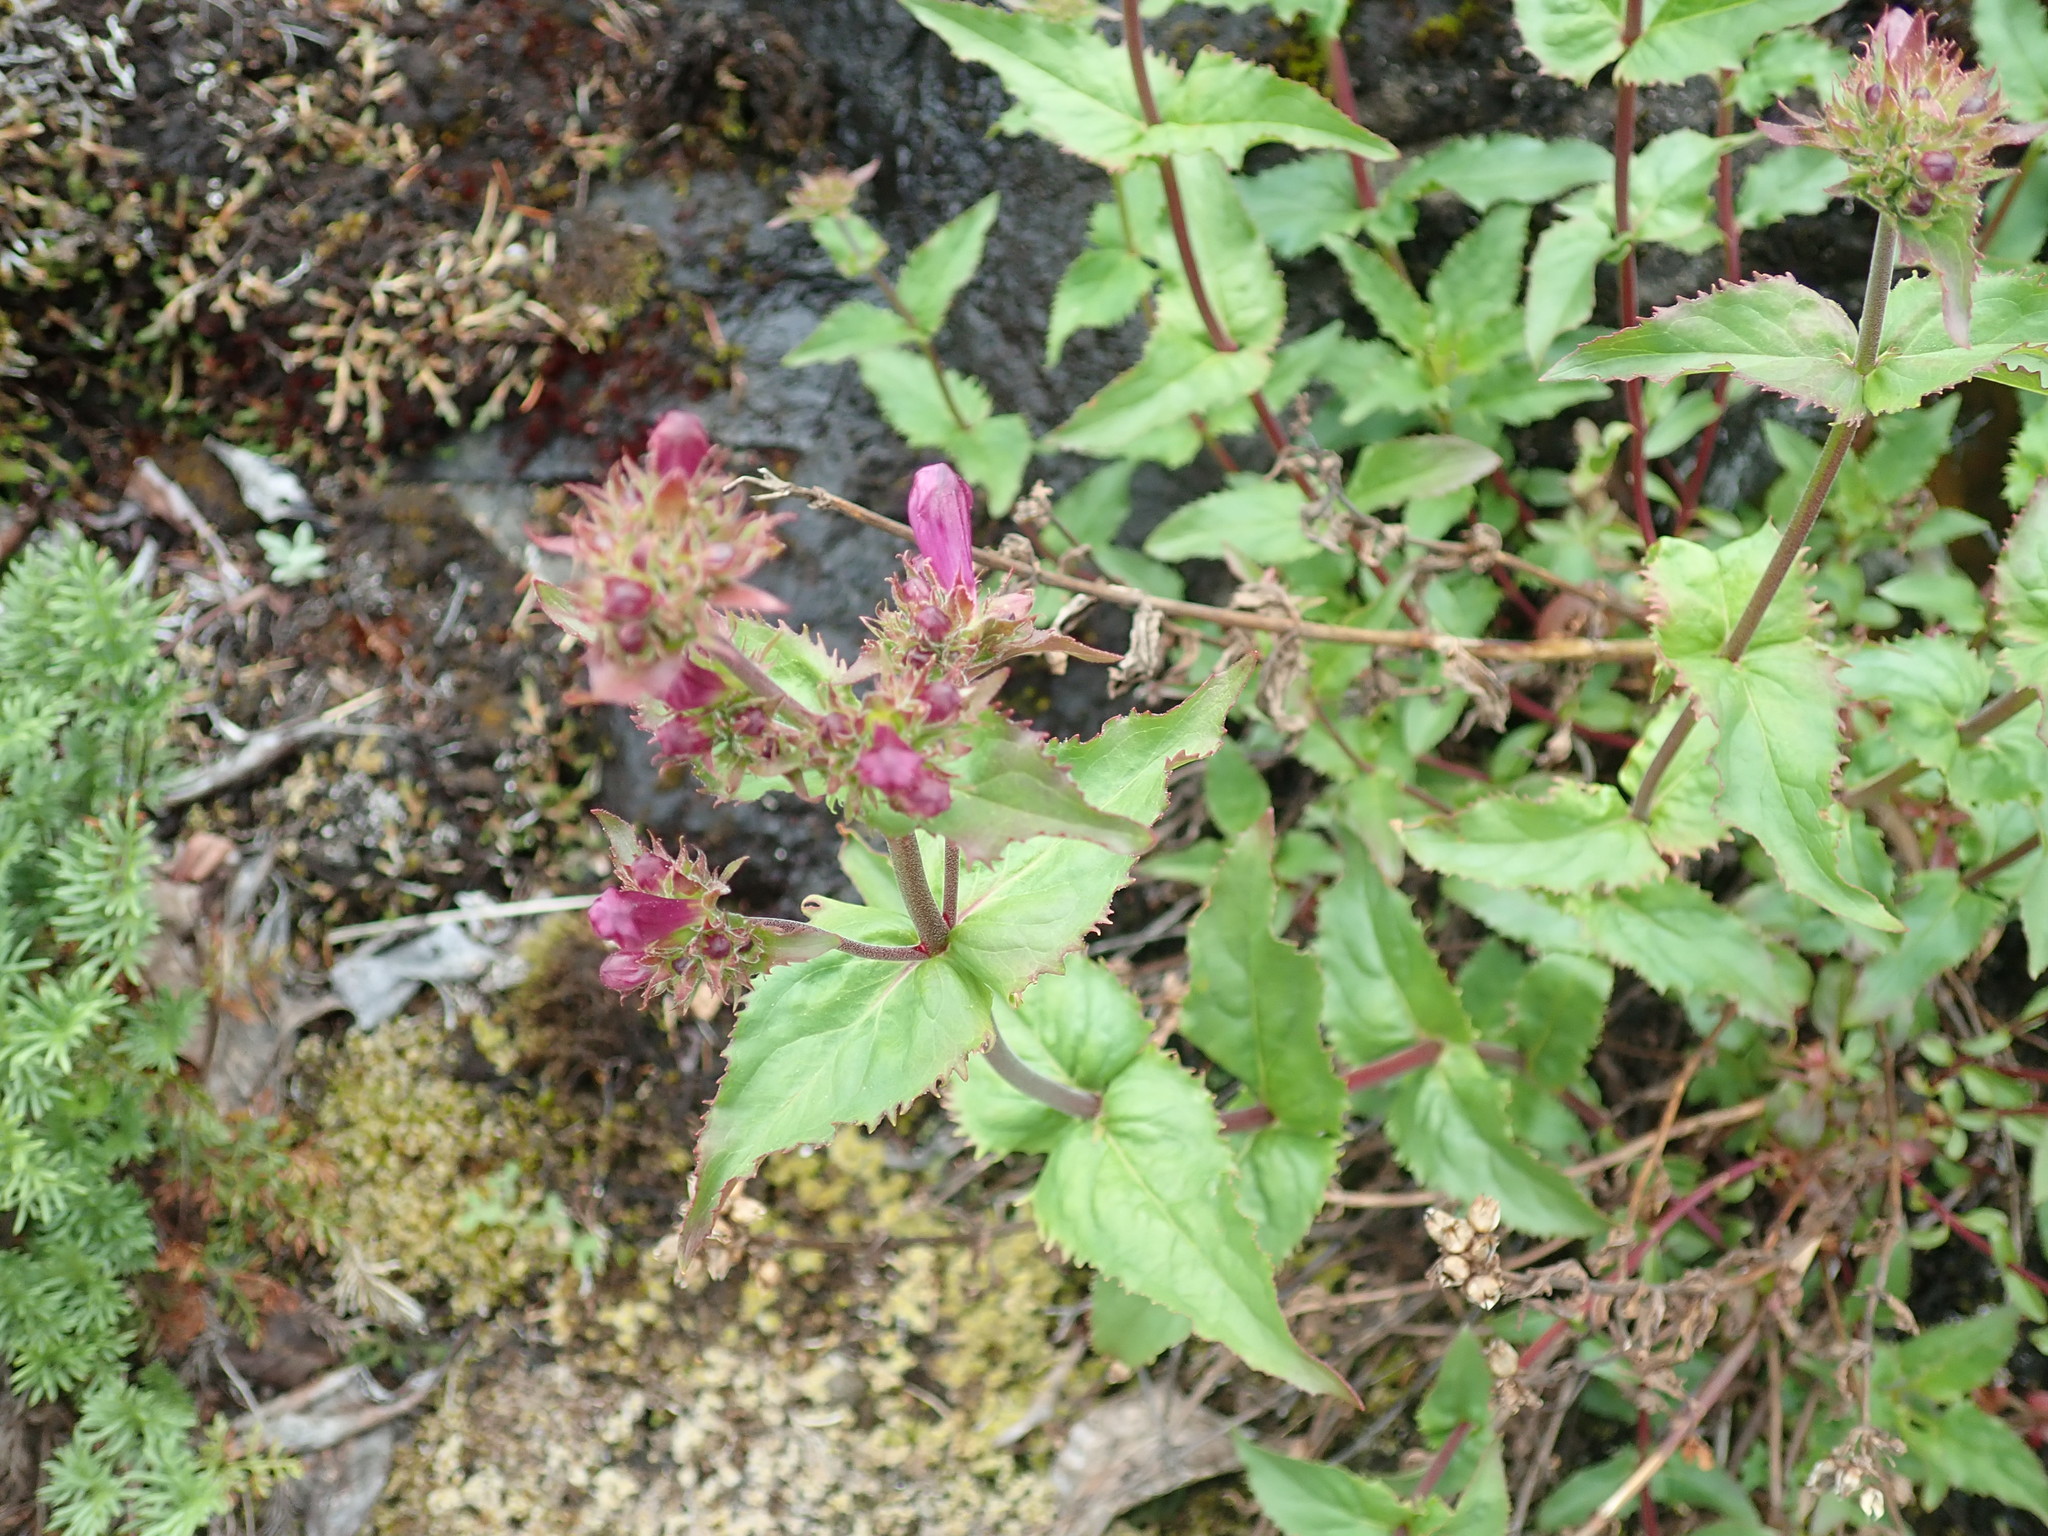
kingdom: Plantae
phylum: Tracheophyta
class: Magnoliopsida
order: Lamiales
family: Plantaginaceae
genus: Penstemon
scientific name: Penstemon serrulatus
